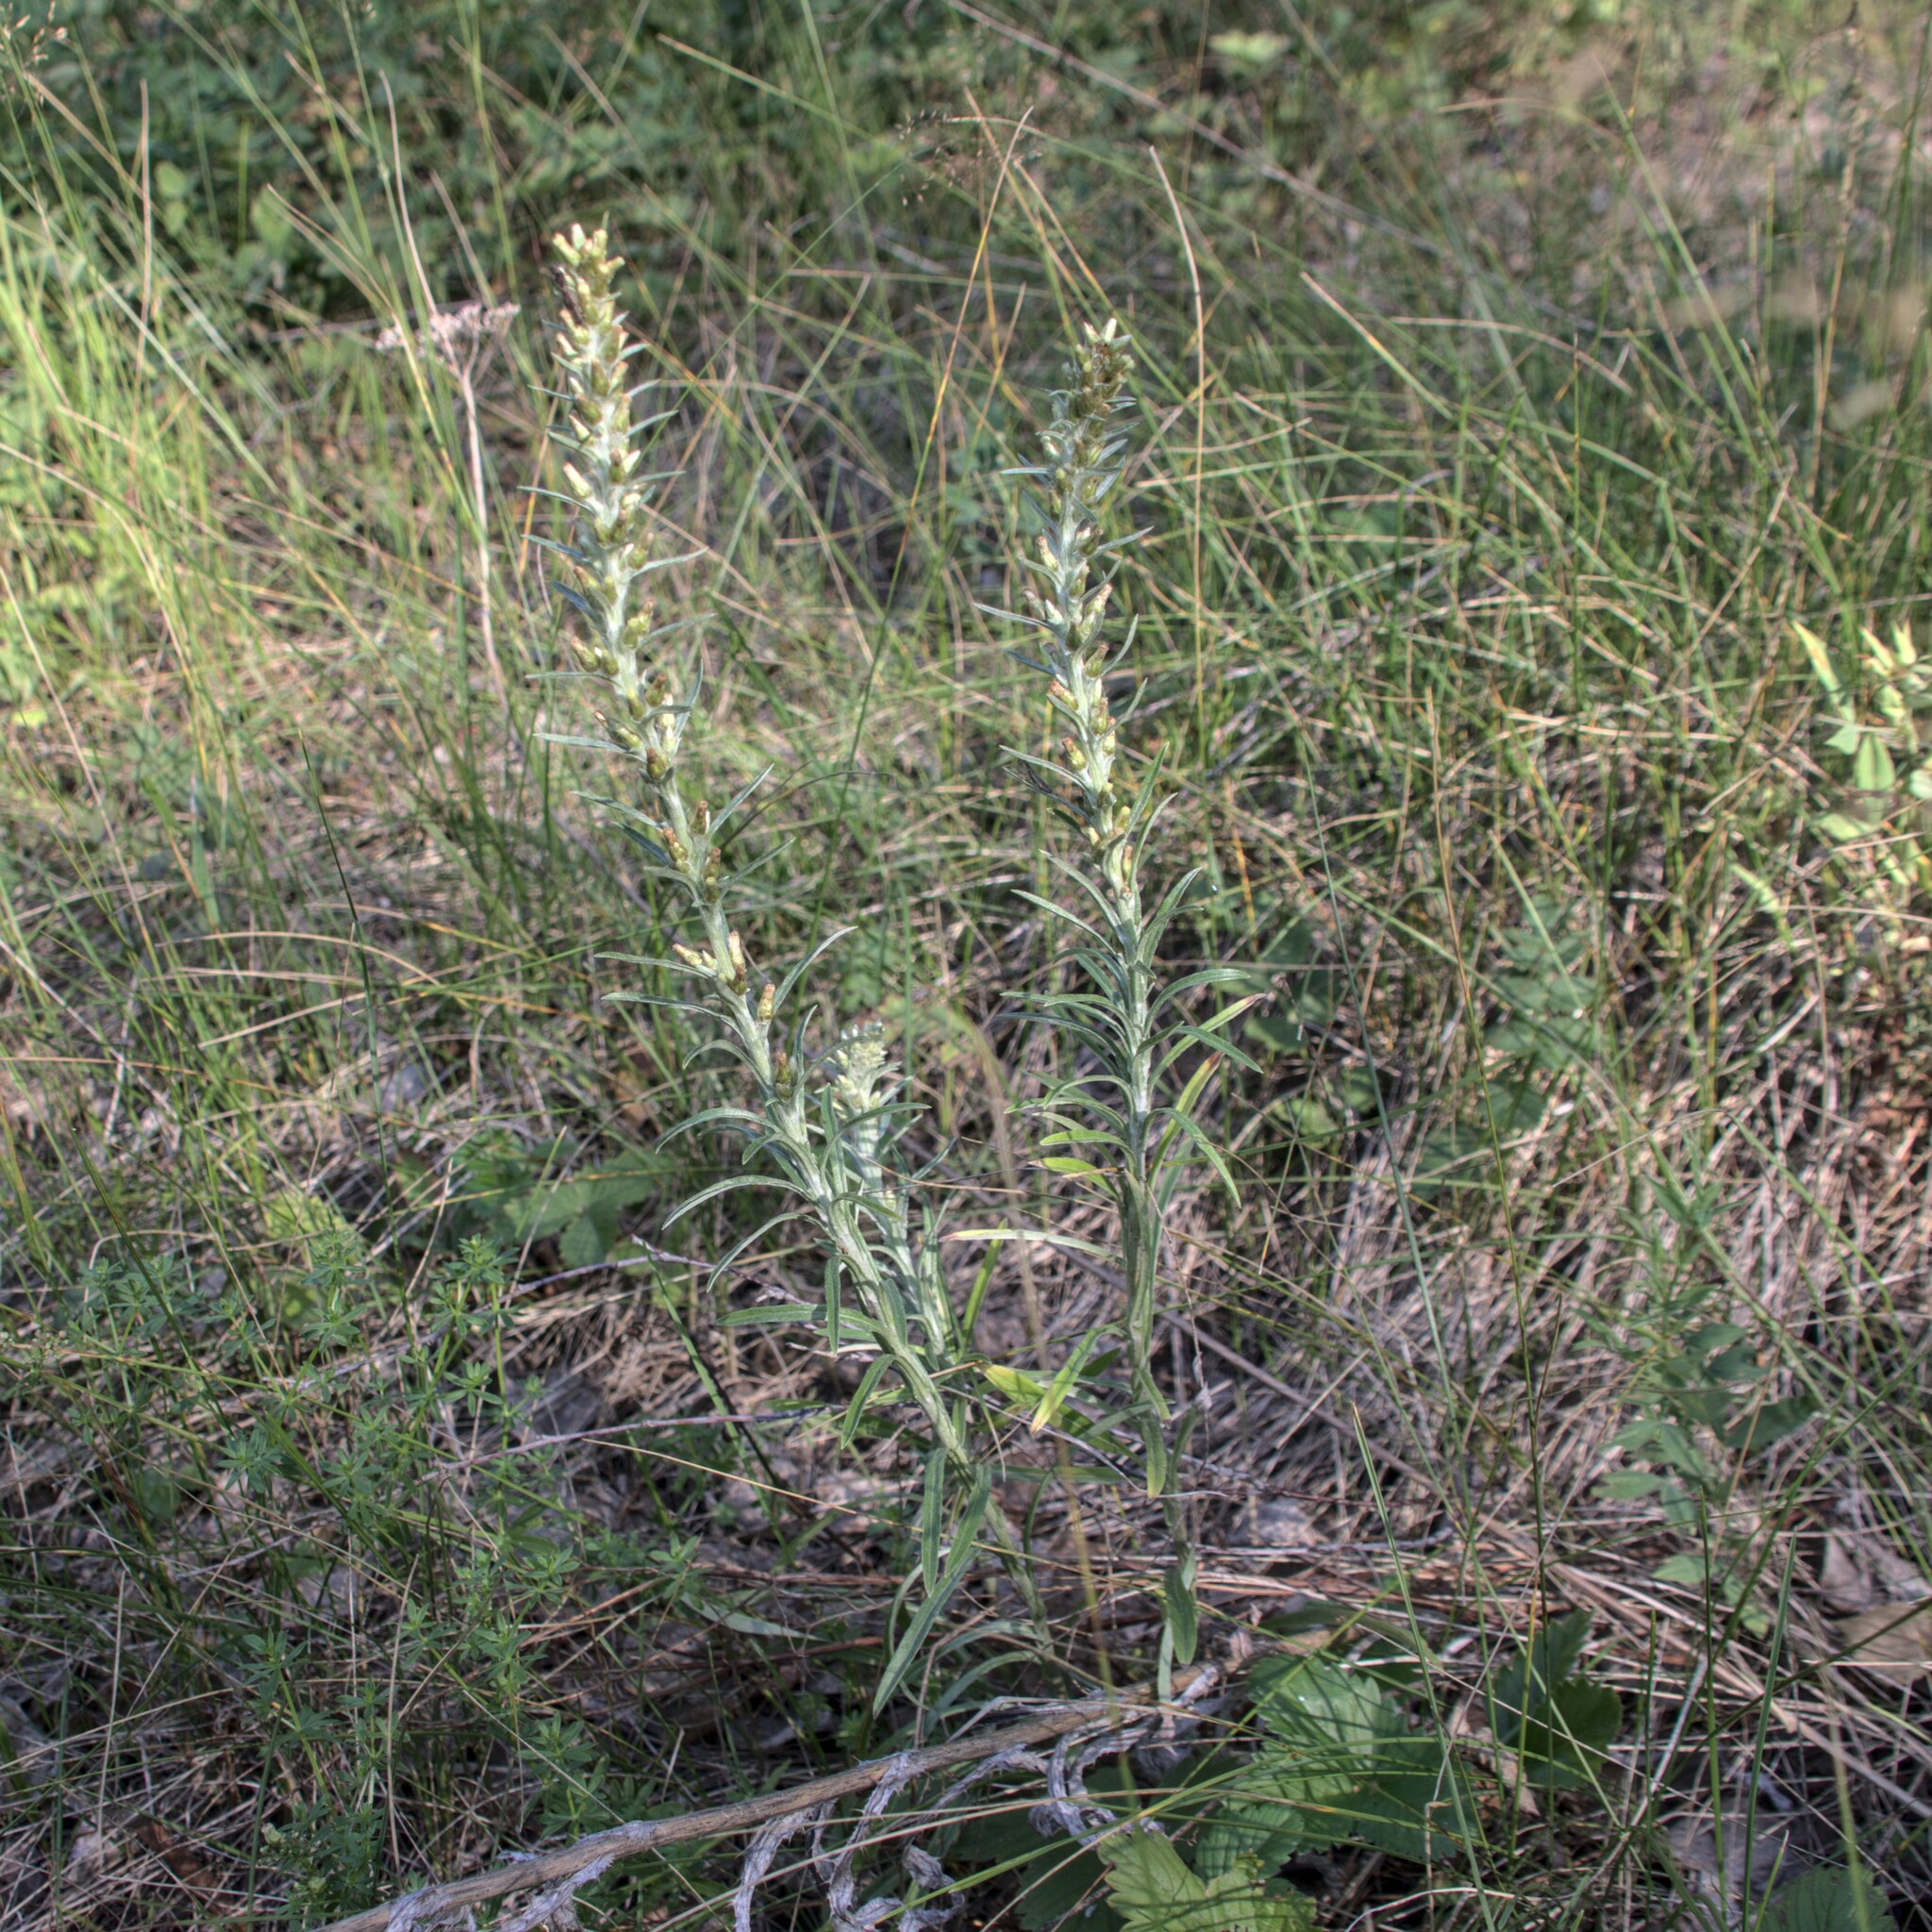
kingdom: Plantae
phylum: Tracheophyta
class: Magnoliopsida
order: Asterales
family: Asteraceae
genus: Omalotheca
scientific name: Omalotheca sylvatica
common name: Heath cudweed
